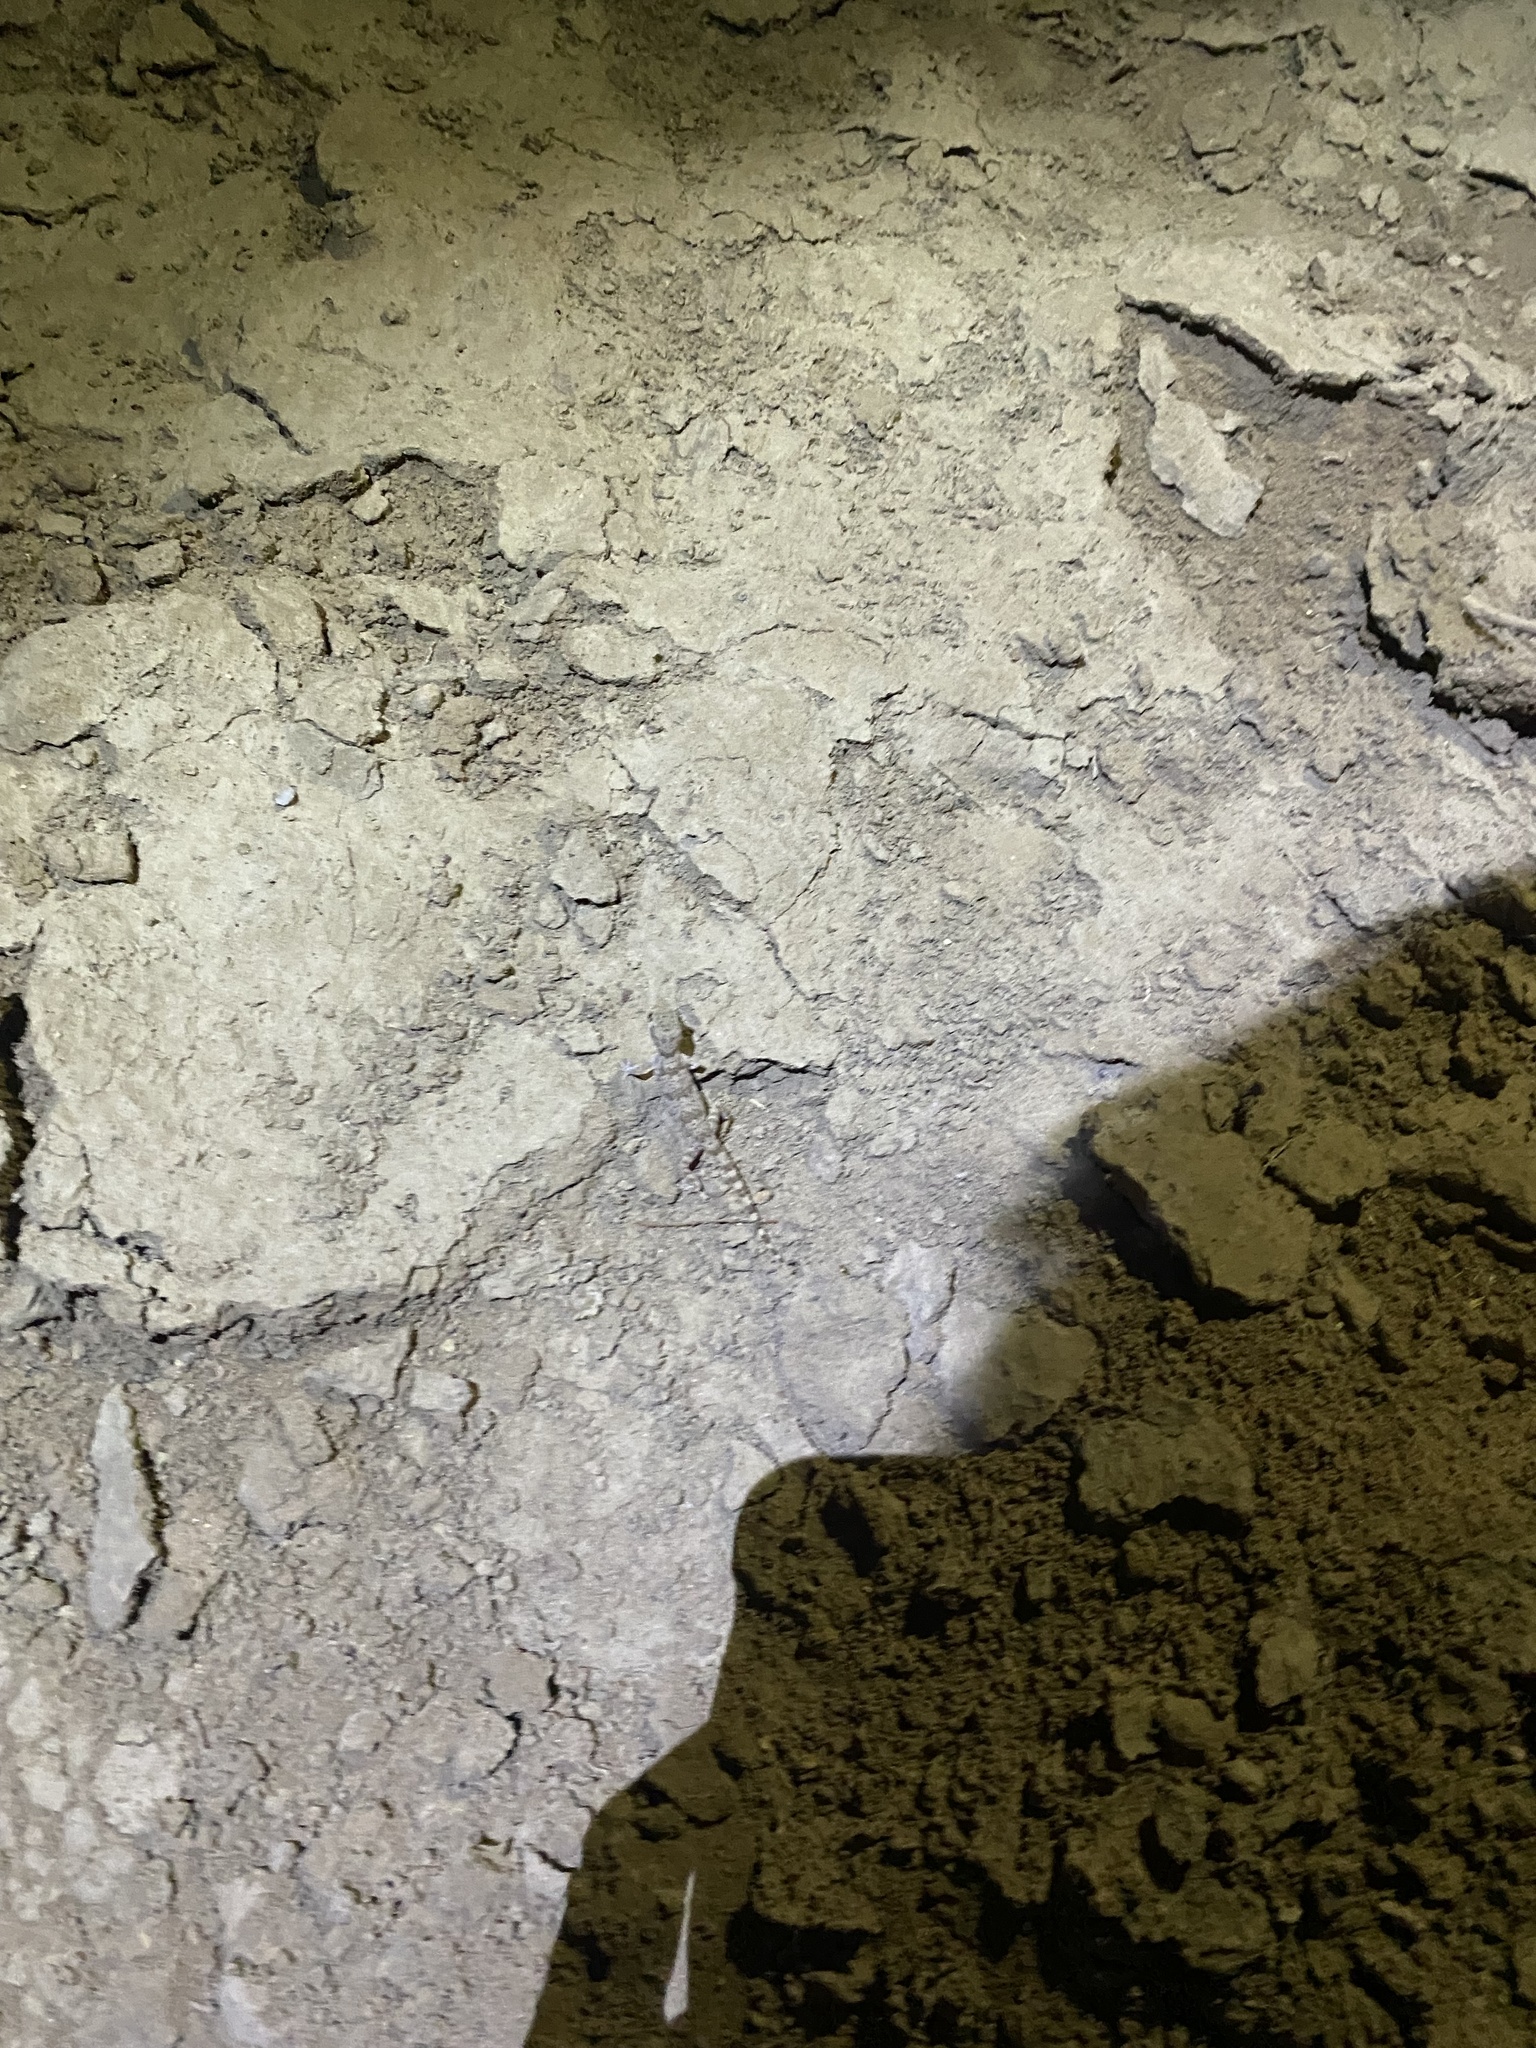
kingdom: Animalia
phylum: Chordata
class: Squamata
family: Gekkonidae
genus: Bunopus
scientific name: Bunopus crassicauda
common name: Thick-tailed tuberculated gecko
